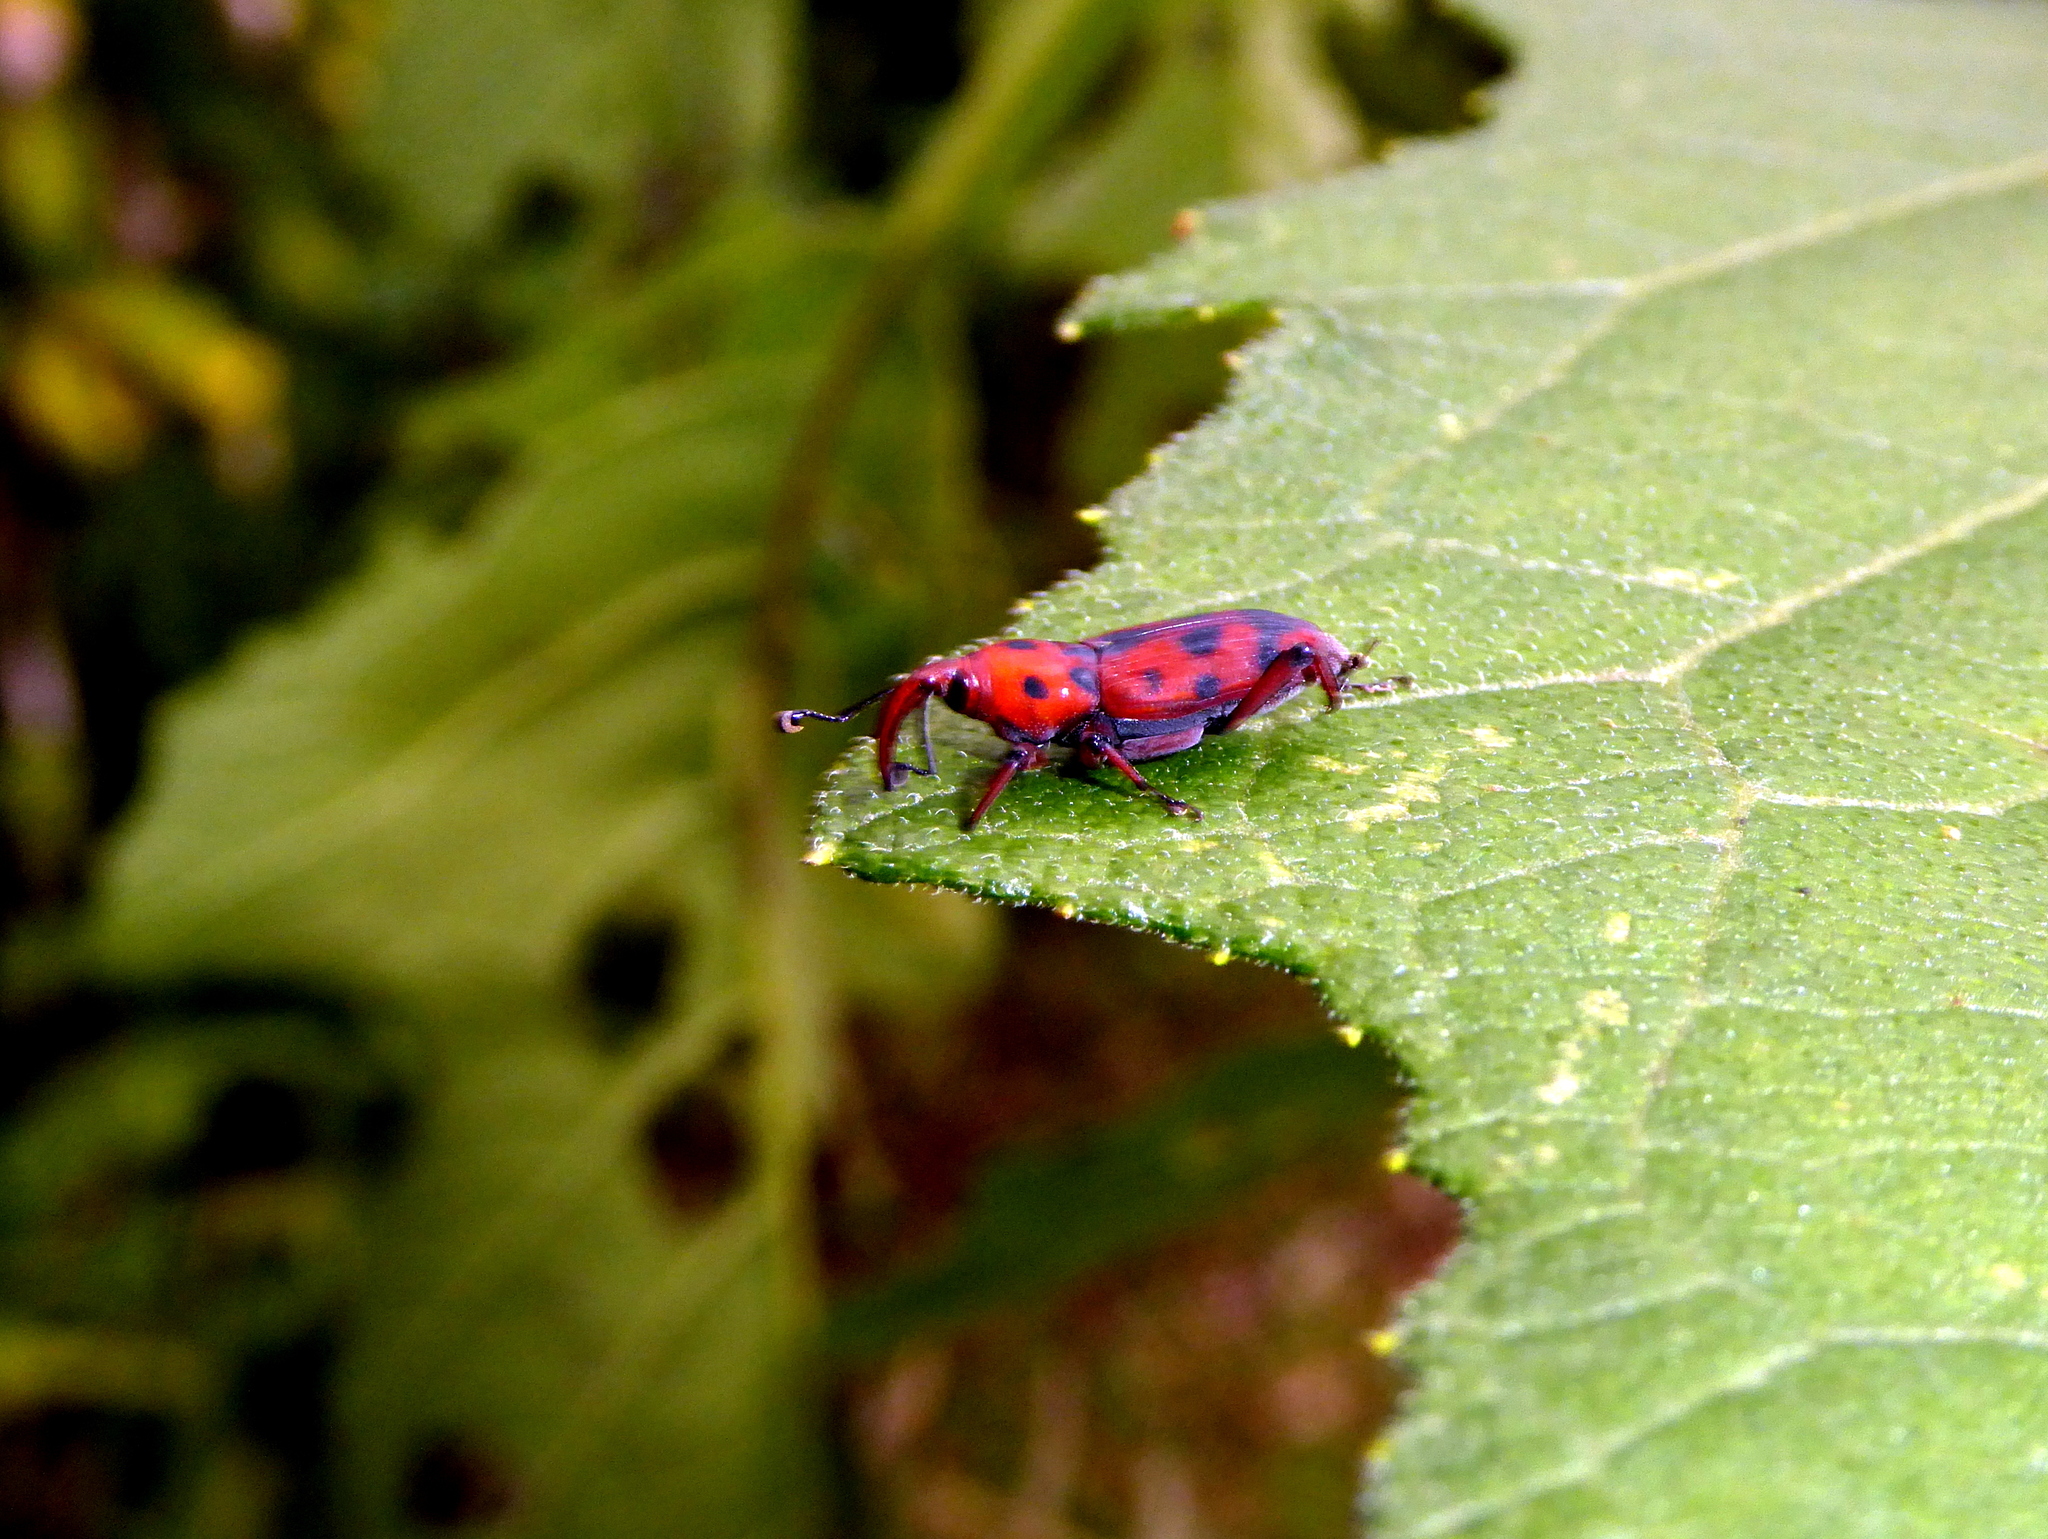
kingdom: Animalia
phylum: Arthropoda
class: Insecta
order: Coleoptera
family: Dryophthoridae
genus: Rhodobaenus
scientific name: Rhodobaenus pantherinus
